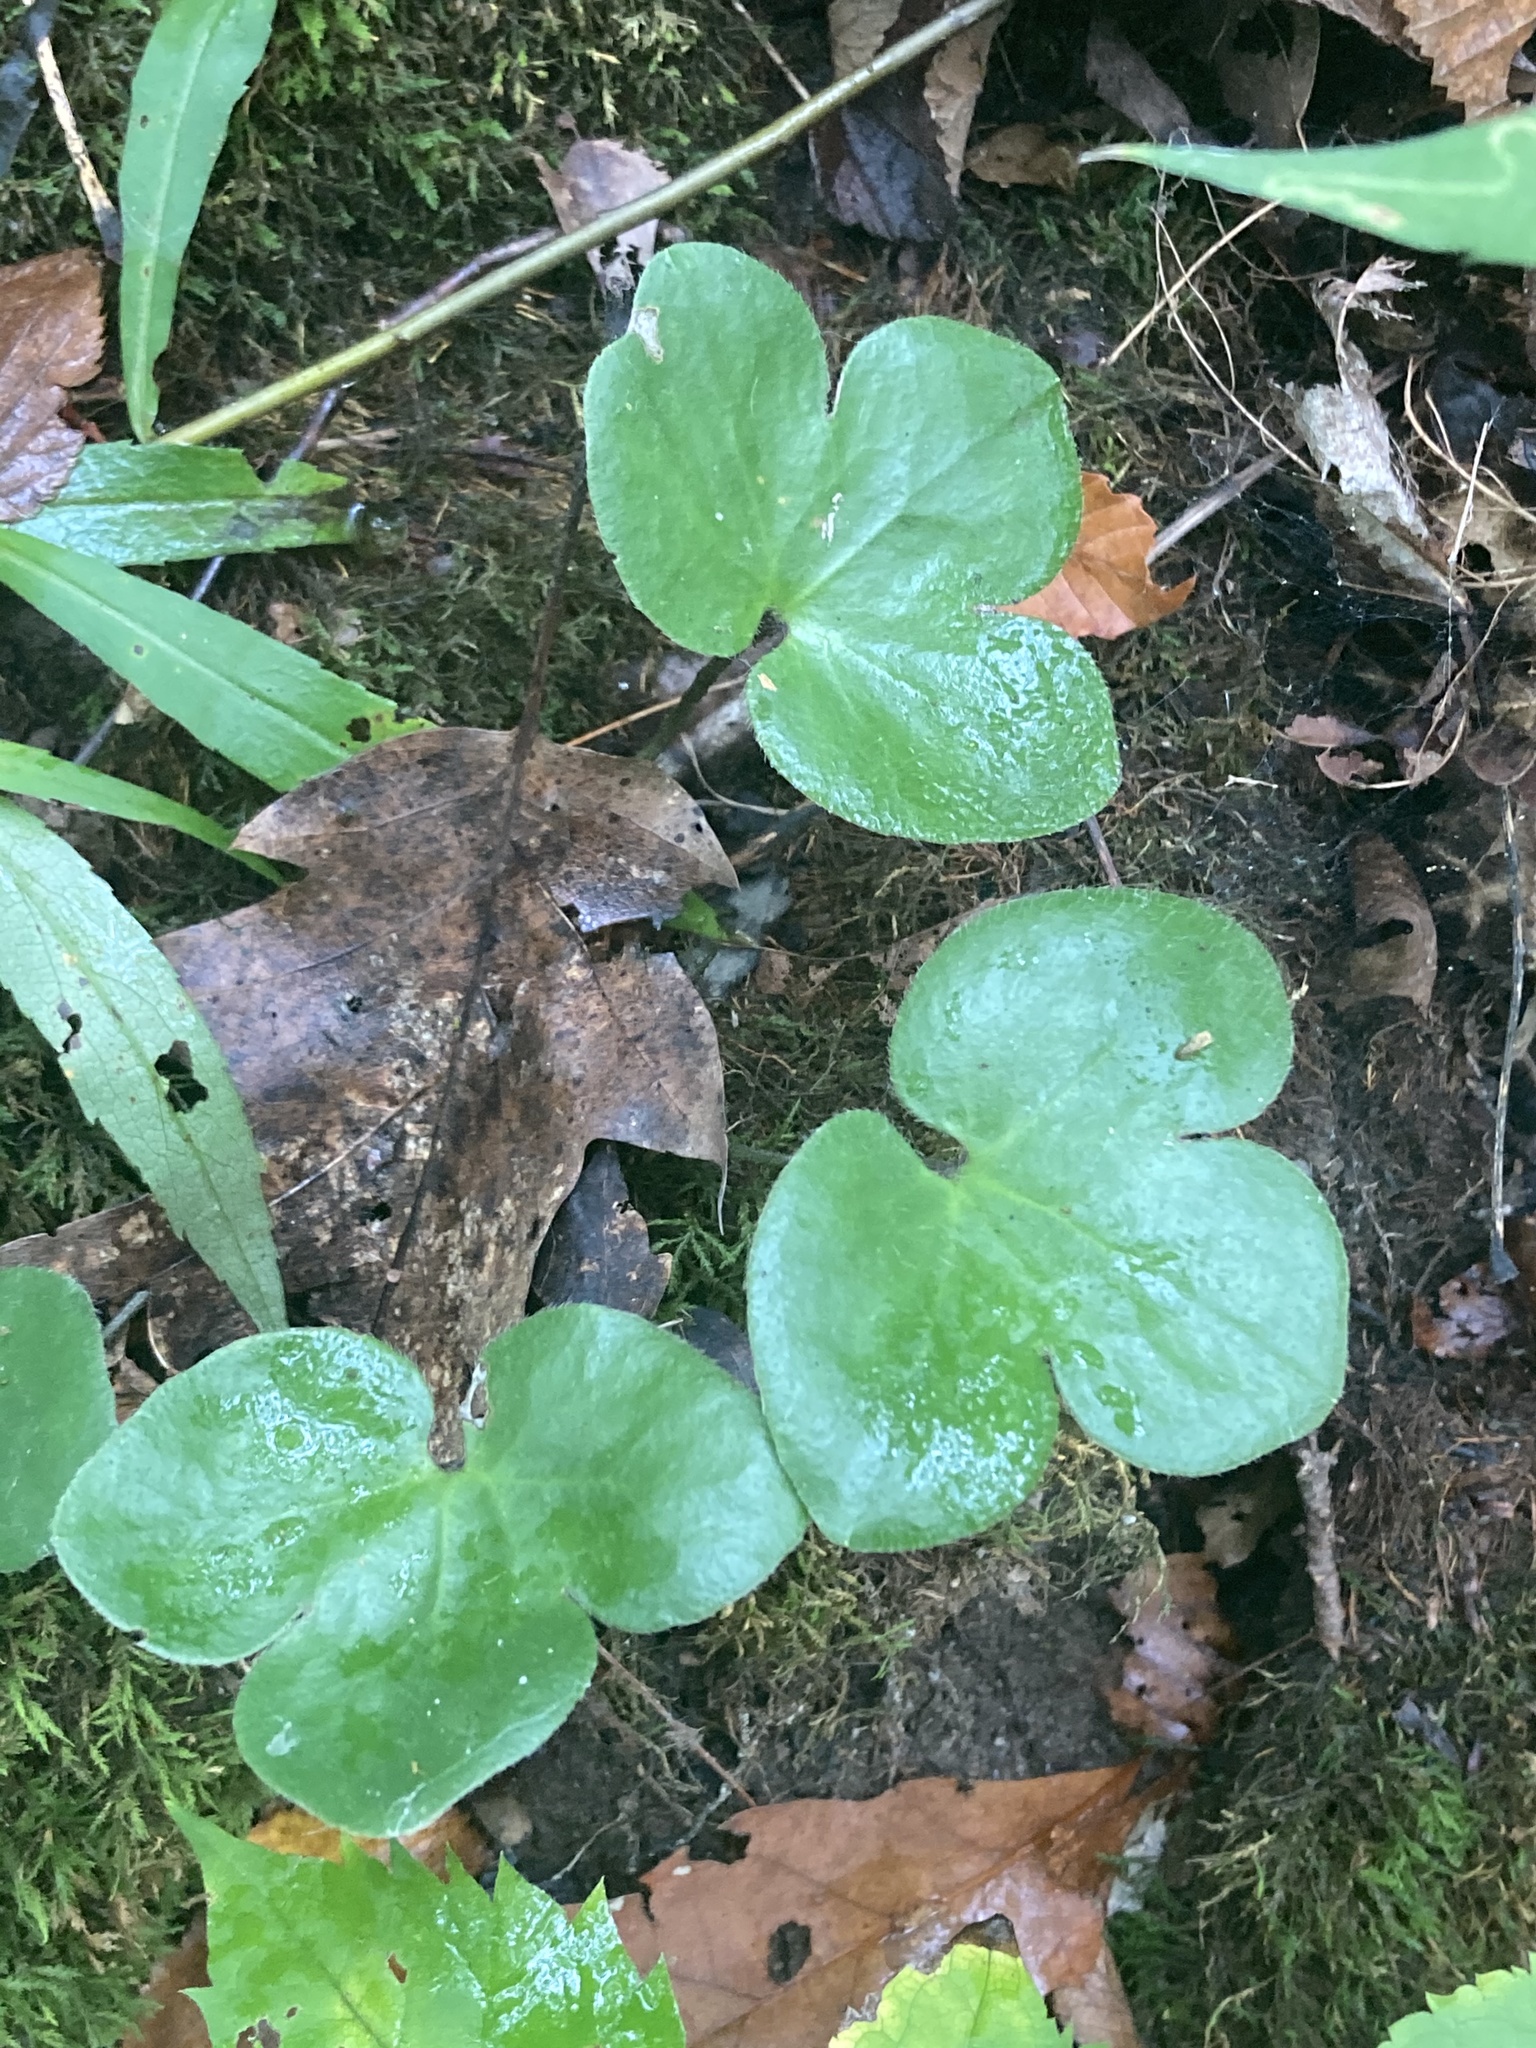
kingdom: Plantae
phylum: Tracheophyta
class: Magnoliopsida
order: Ranunculales
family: Ranunculaceae
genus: Hepatica
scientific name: Hepatica americana
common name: American hepatica
